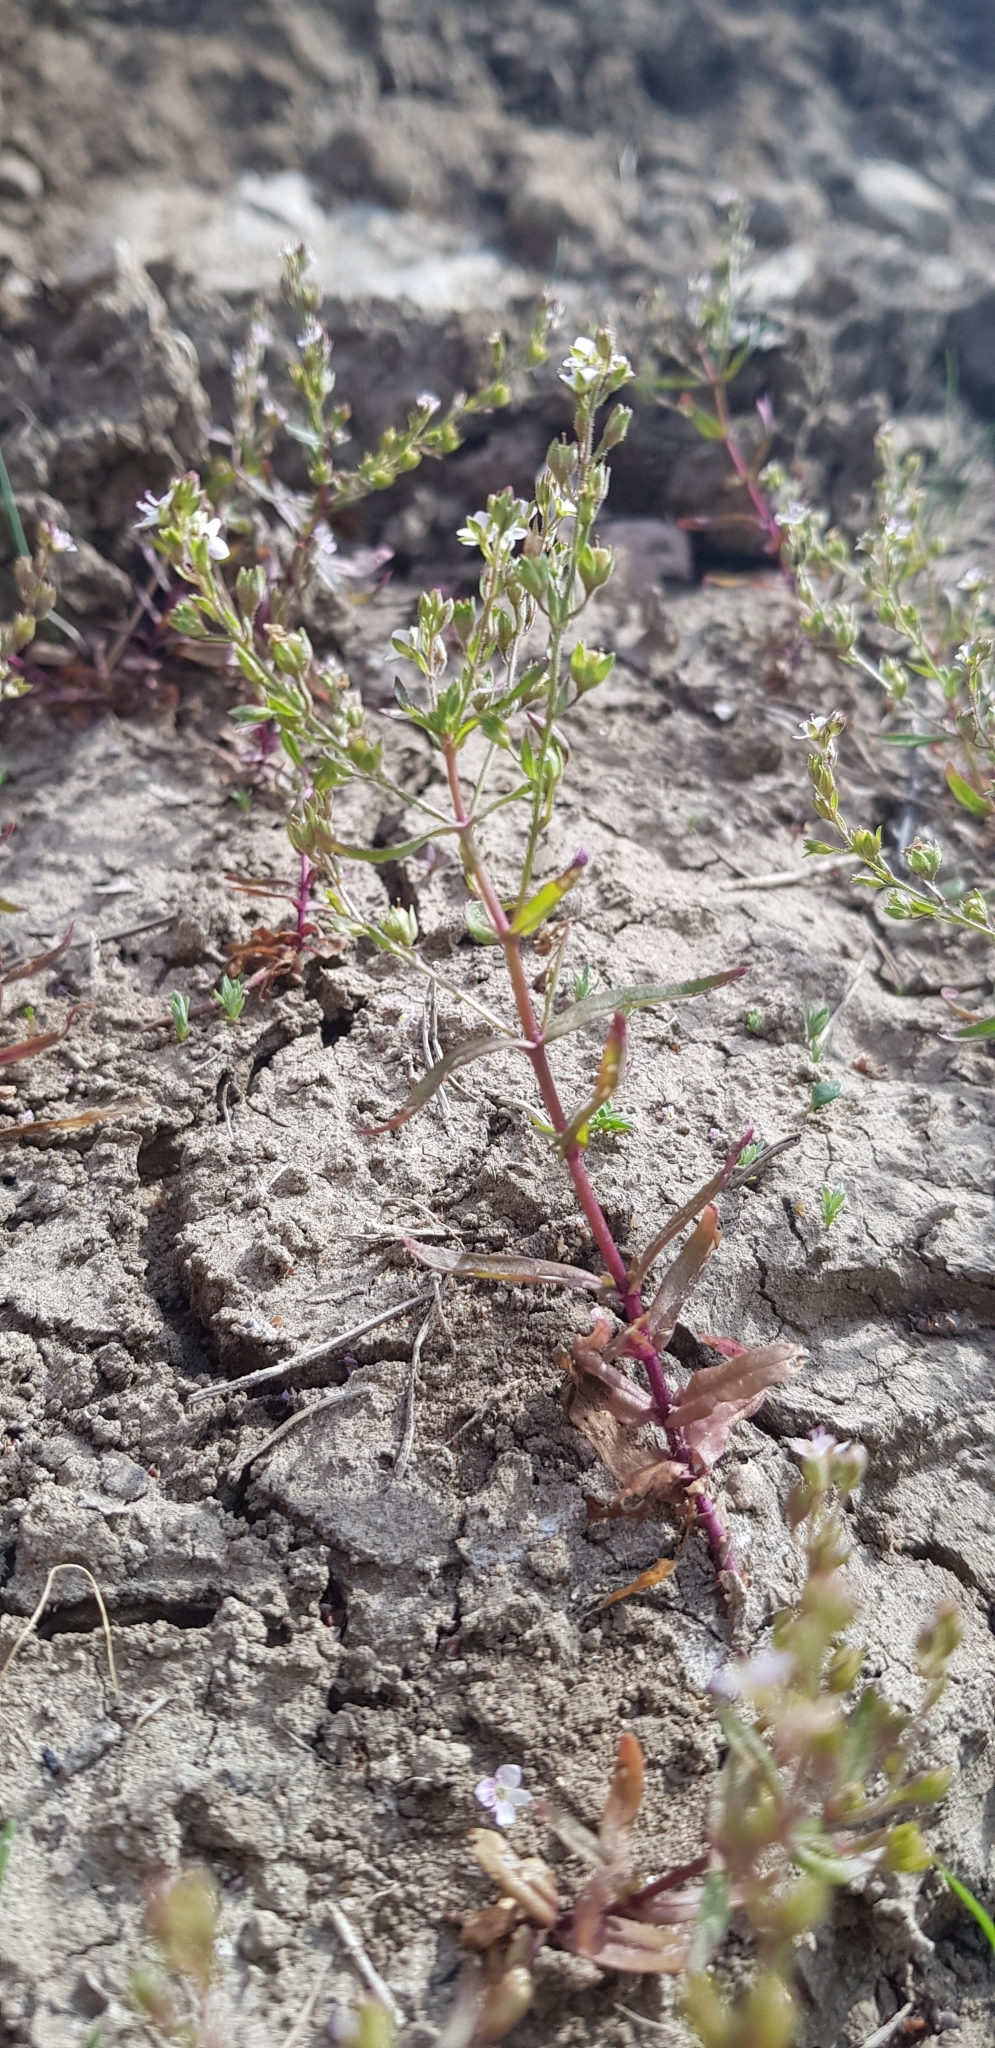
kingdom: Plantae
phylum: Tracheophyta
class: Magnoliopsida
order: Lamiales
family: Plantaginaceae
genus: Veronica
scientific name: Veronica catenata
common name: Pink water-speedwell
